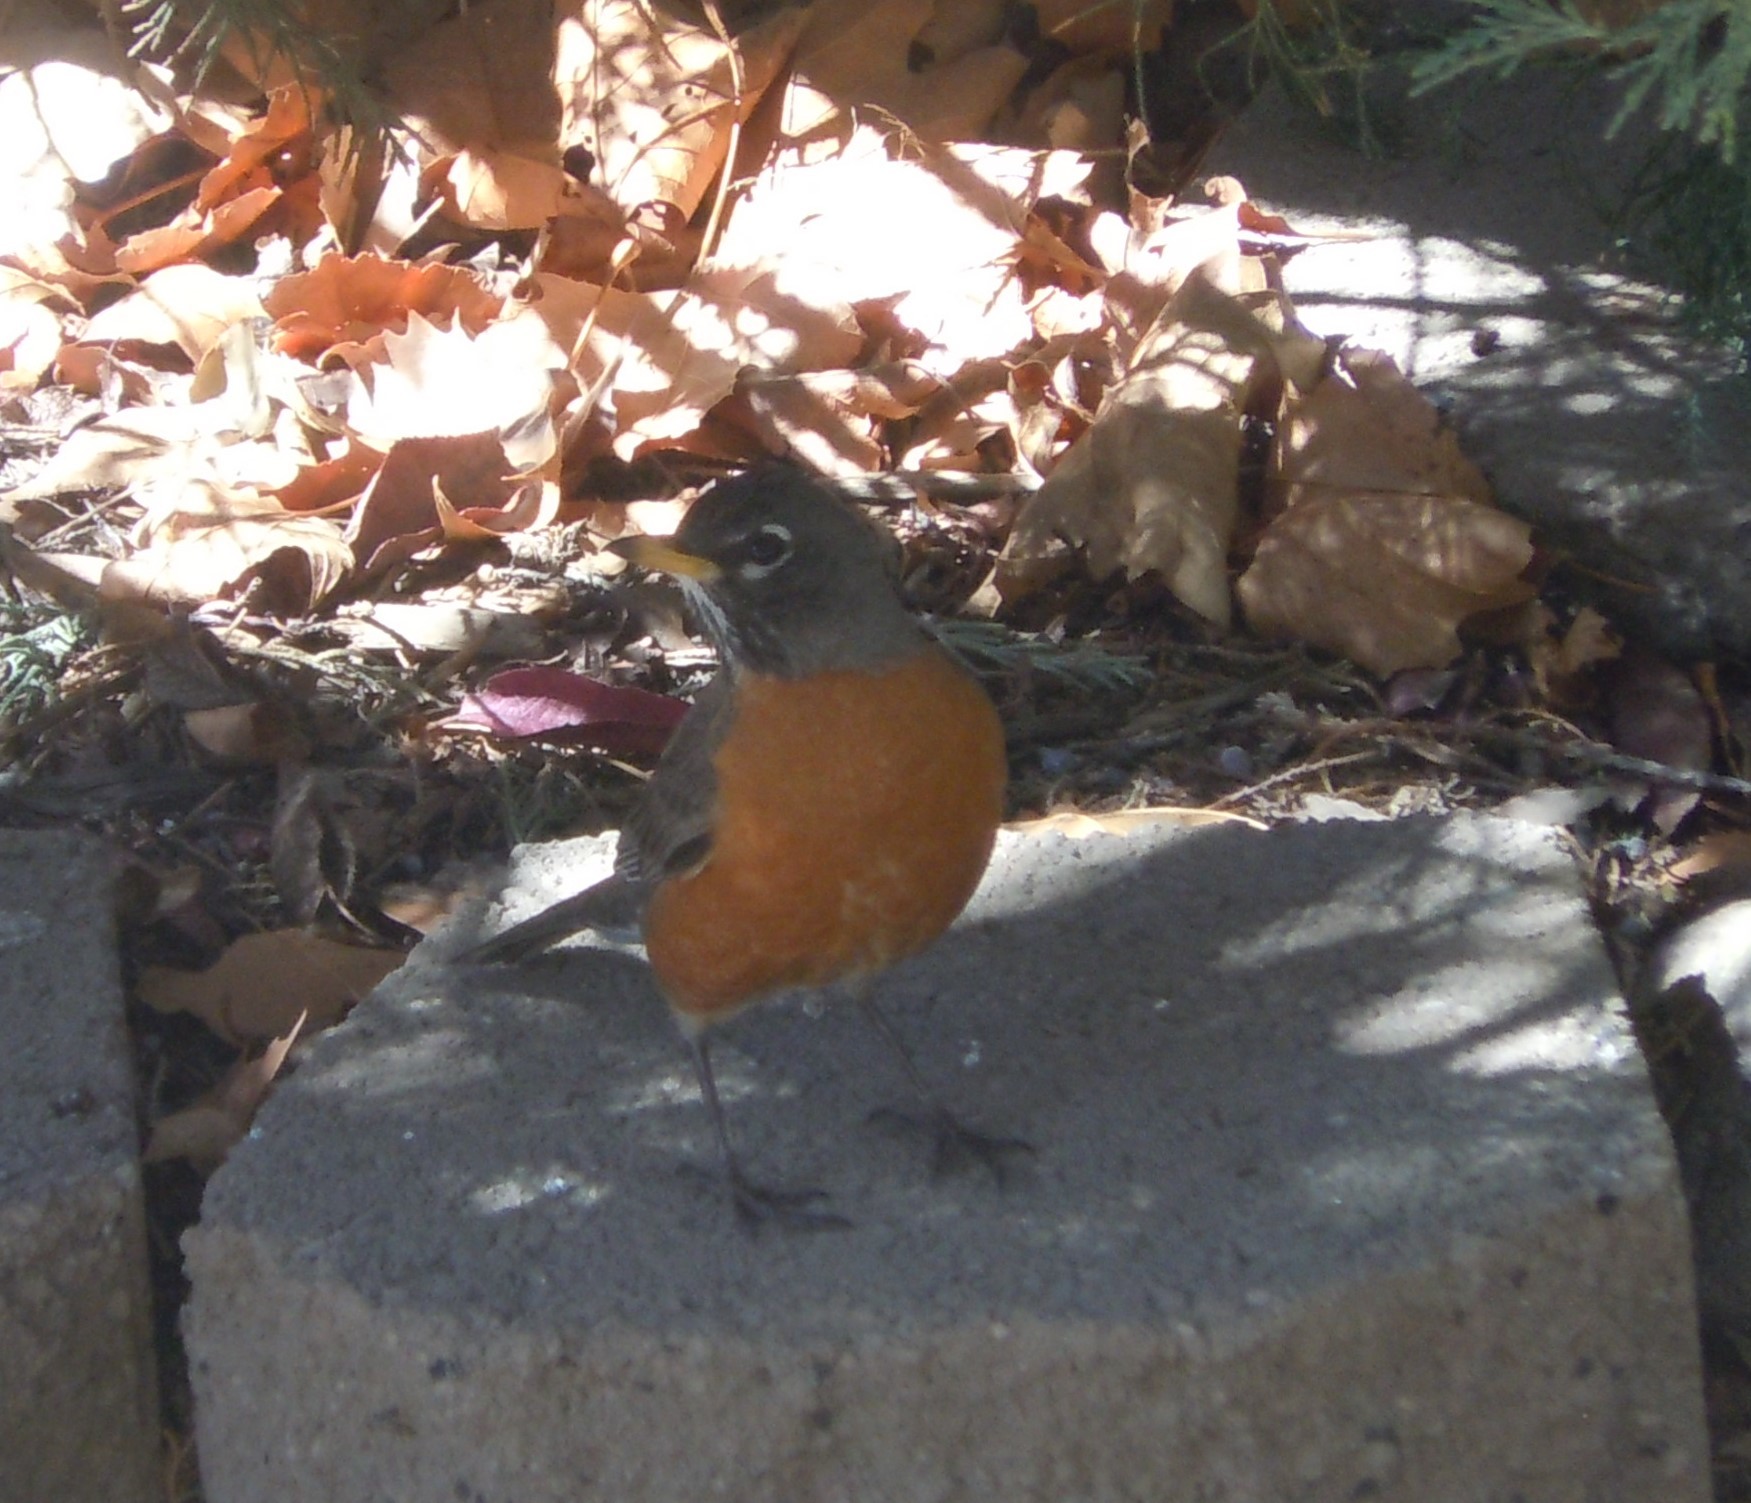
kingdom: Animalia
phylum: Chordata
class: Aves
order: Passeriformes
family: Turdidae
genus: Turdus
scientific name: Turdus migratorius
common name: American robin
